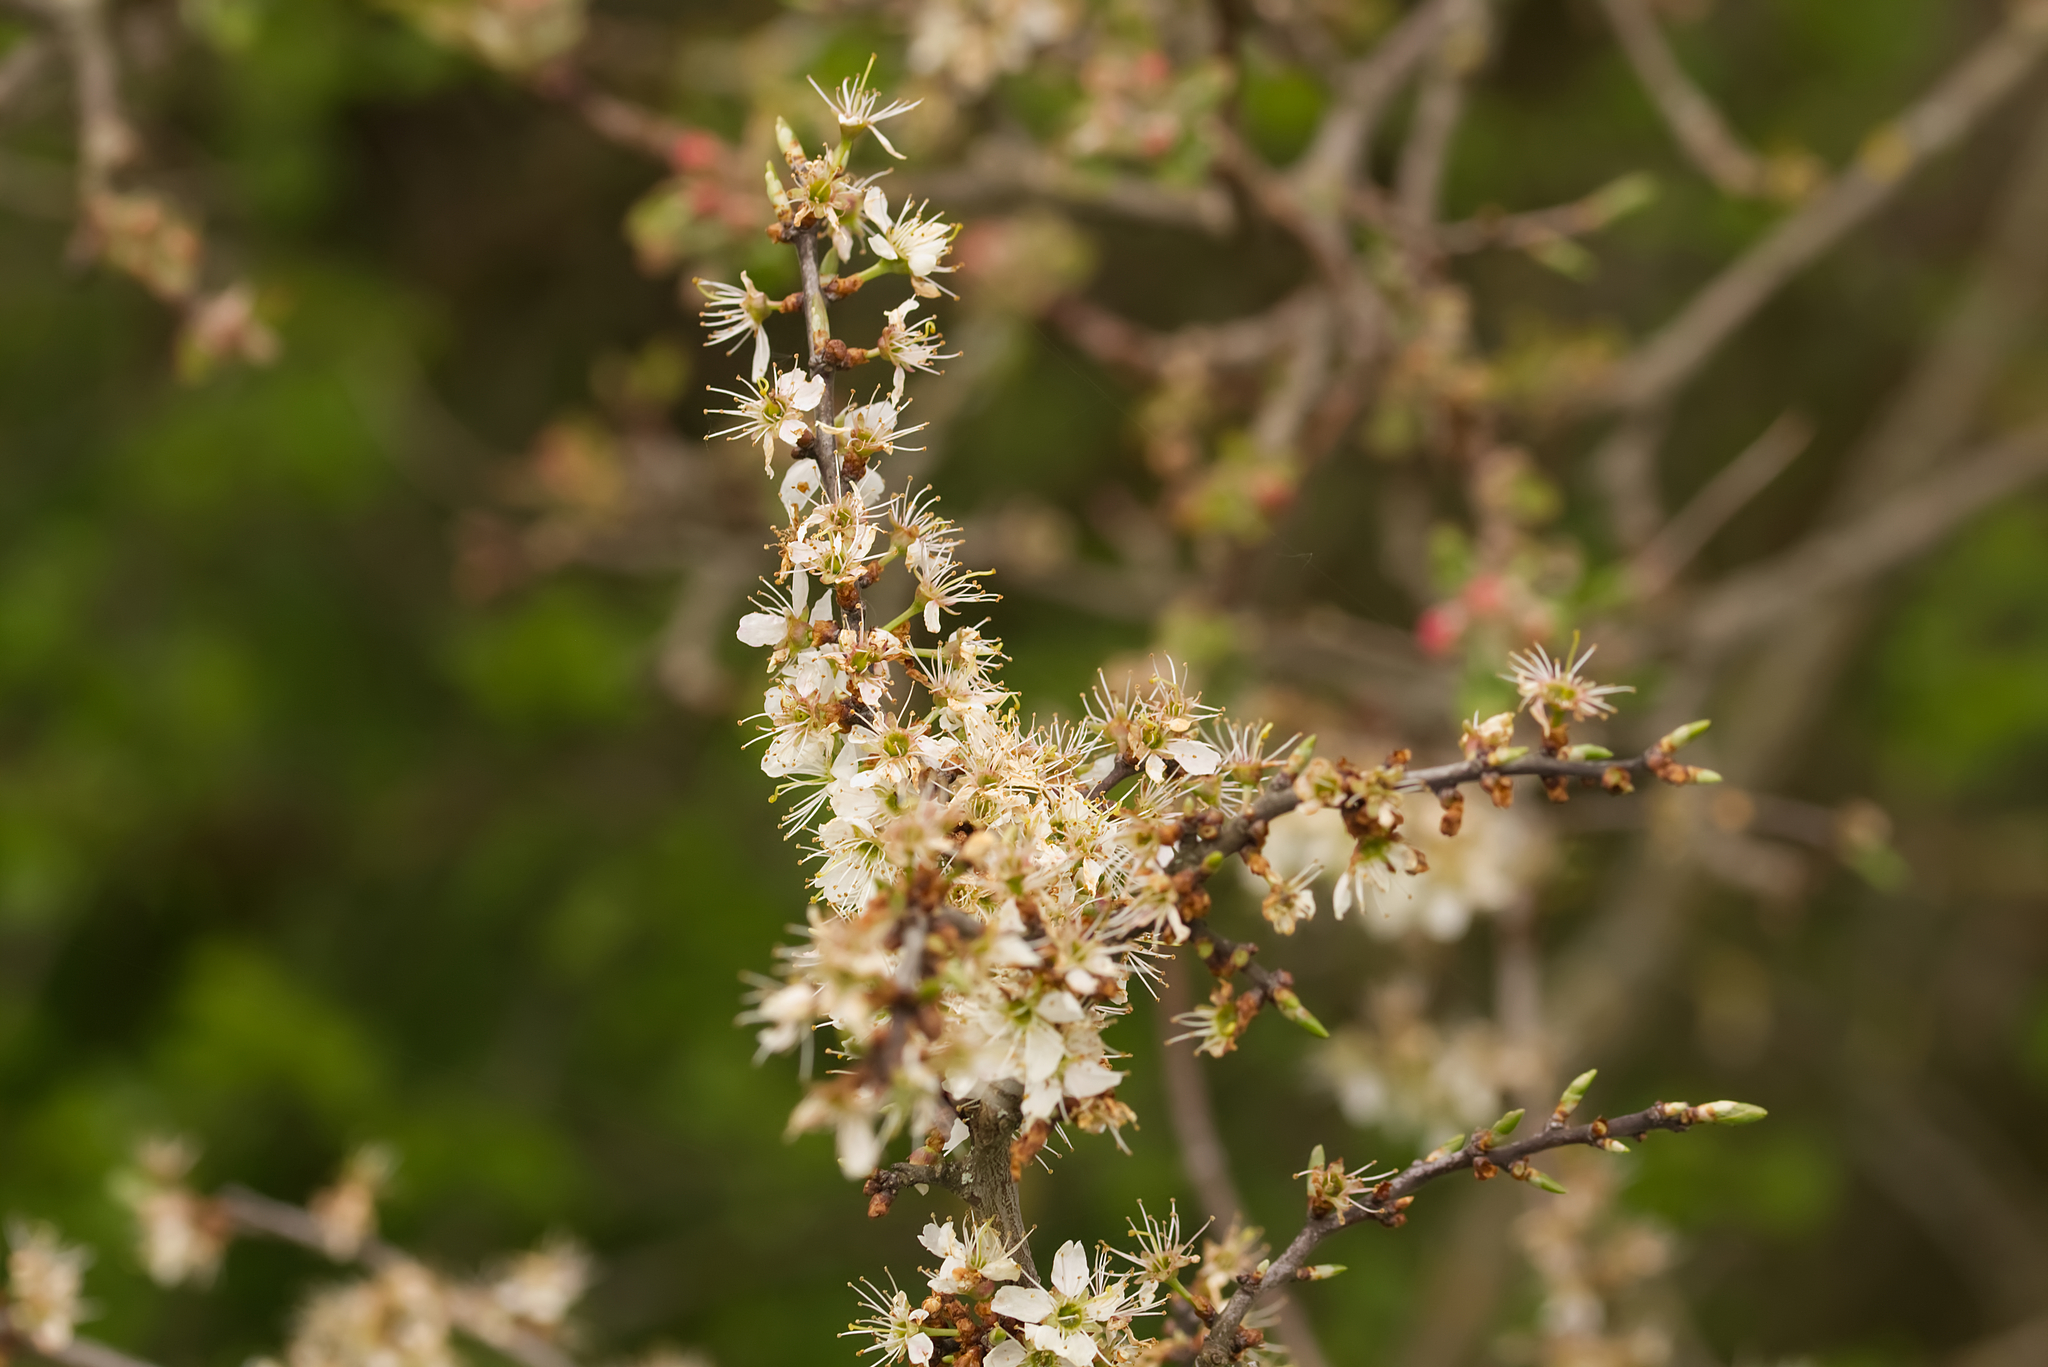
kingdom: Plantae
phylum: Tracheophyta
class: Magnoliopsida
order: Rosales
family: Rosaceae
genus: Prunus
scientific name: Prunus spinosa
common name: Blackthorn
